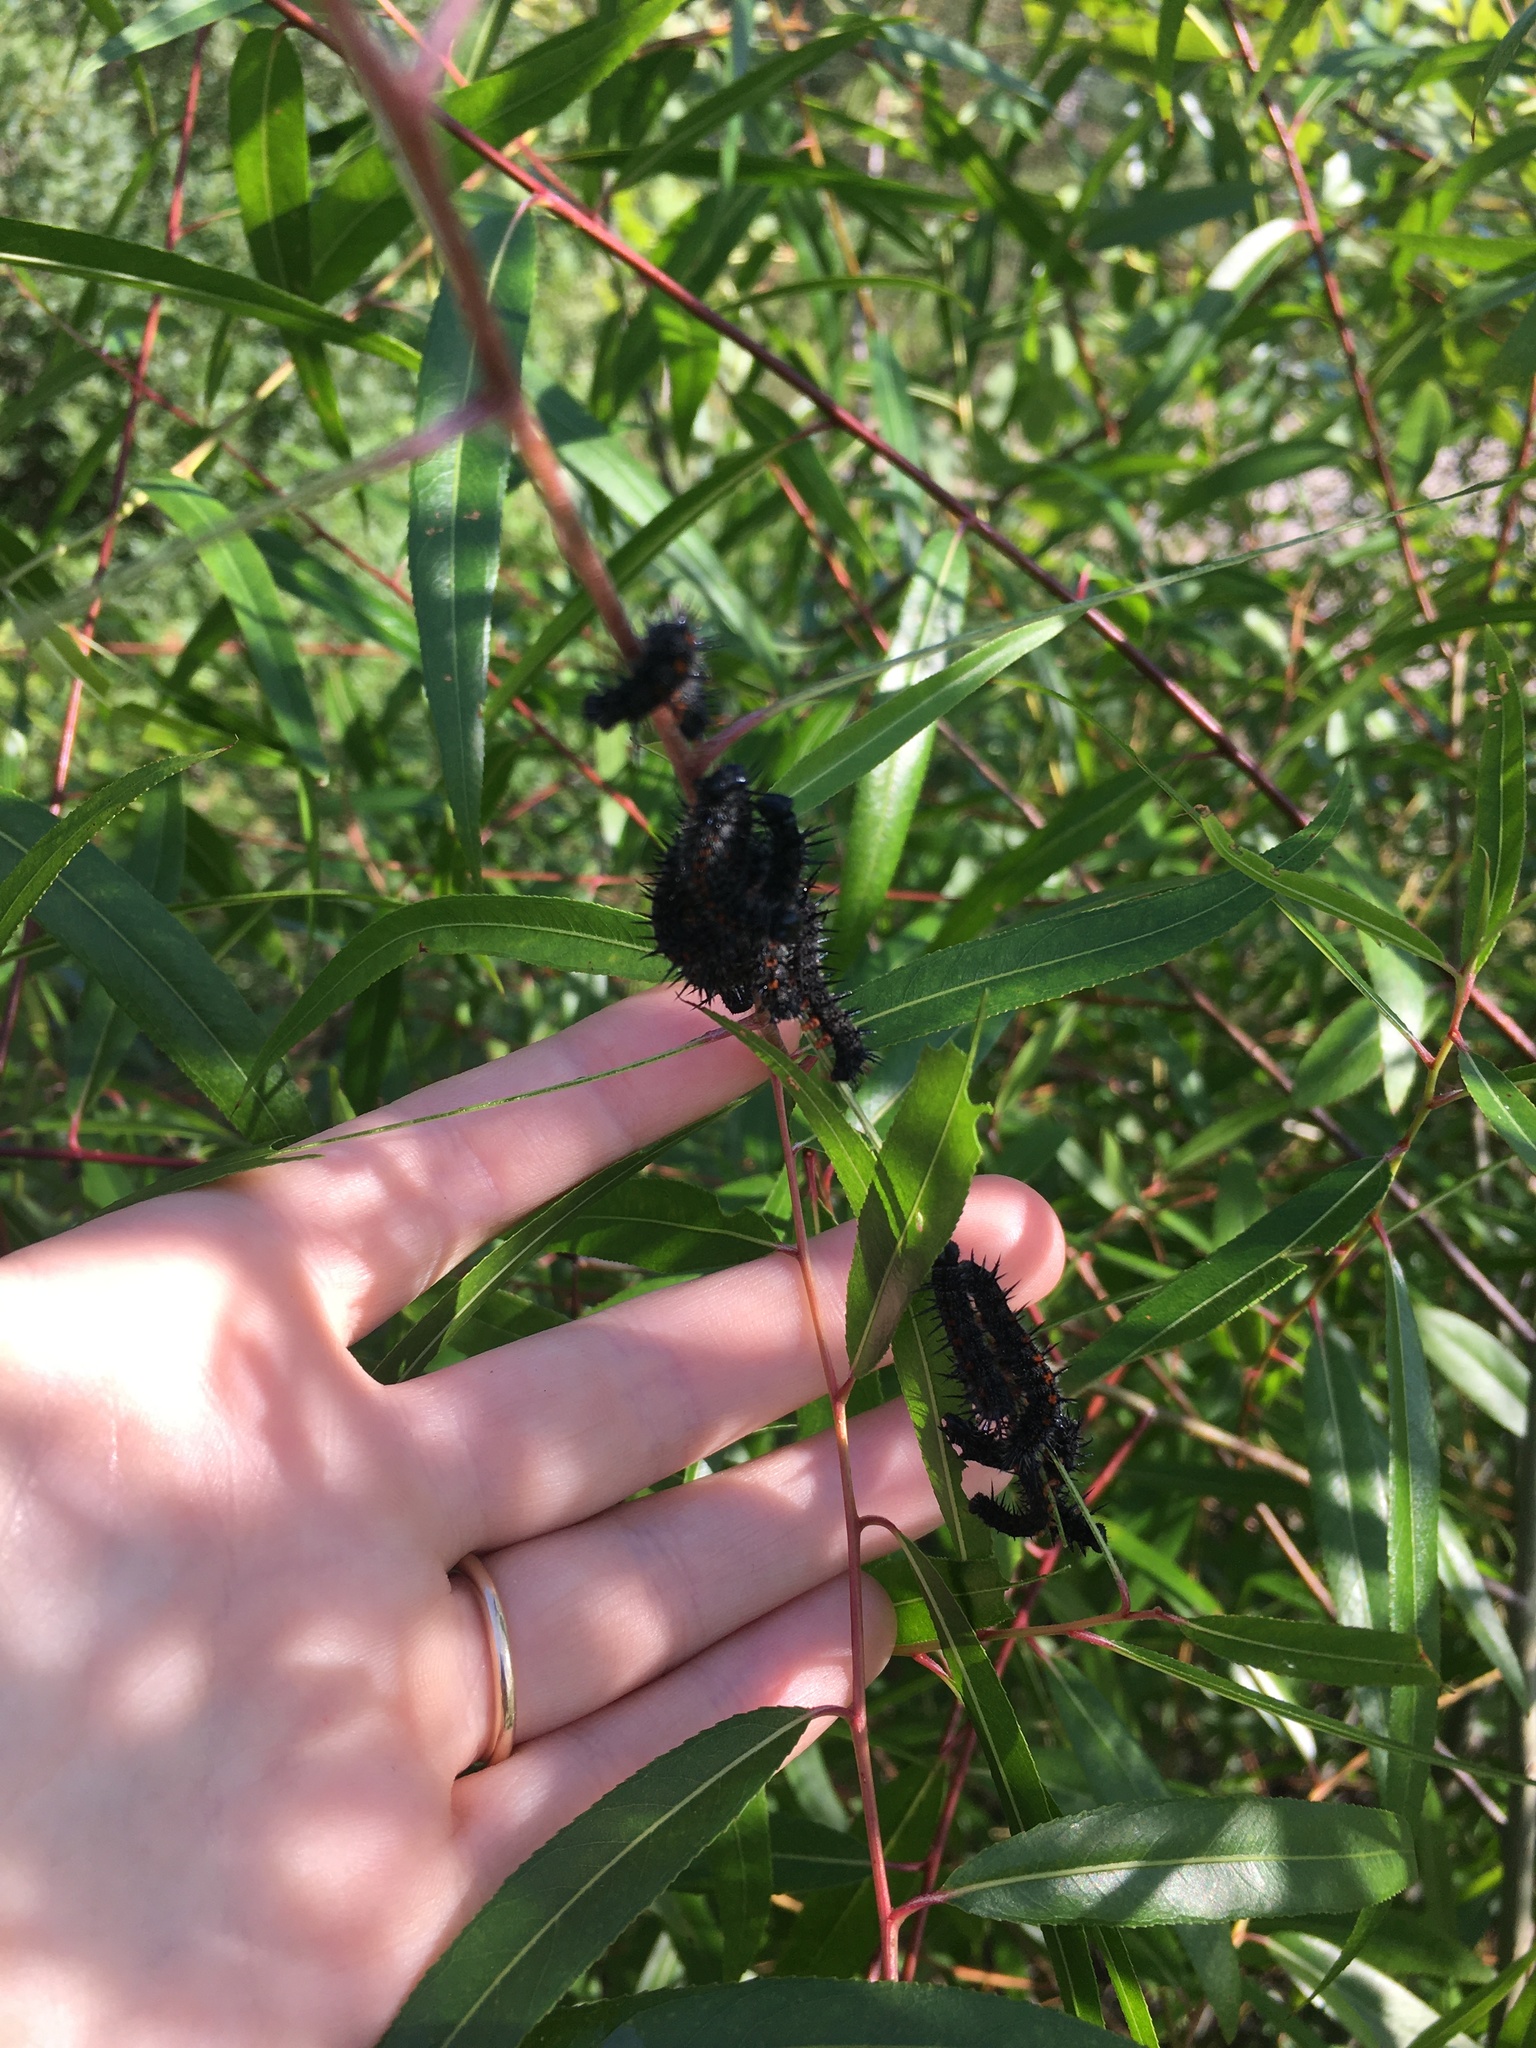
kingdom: Animalia
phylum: Arthropoda
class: Insecta
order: Lepidoptera
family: Nymphalidae
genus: Nymphalis
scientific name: Nymphalis antiopa
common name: Camberwell beauty
